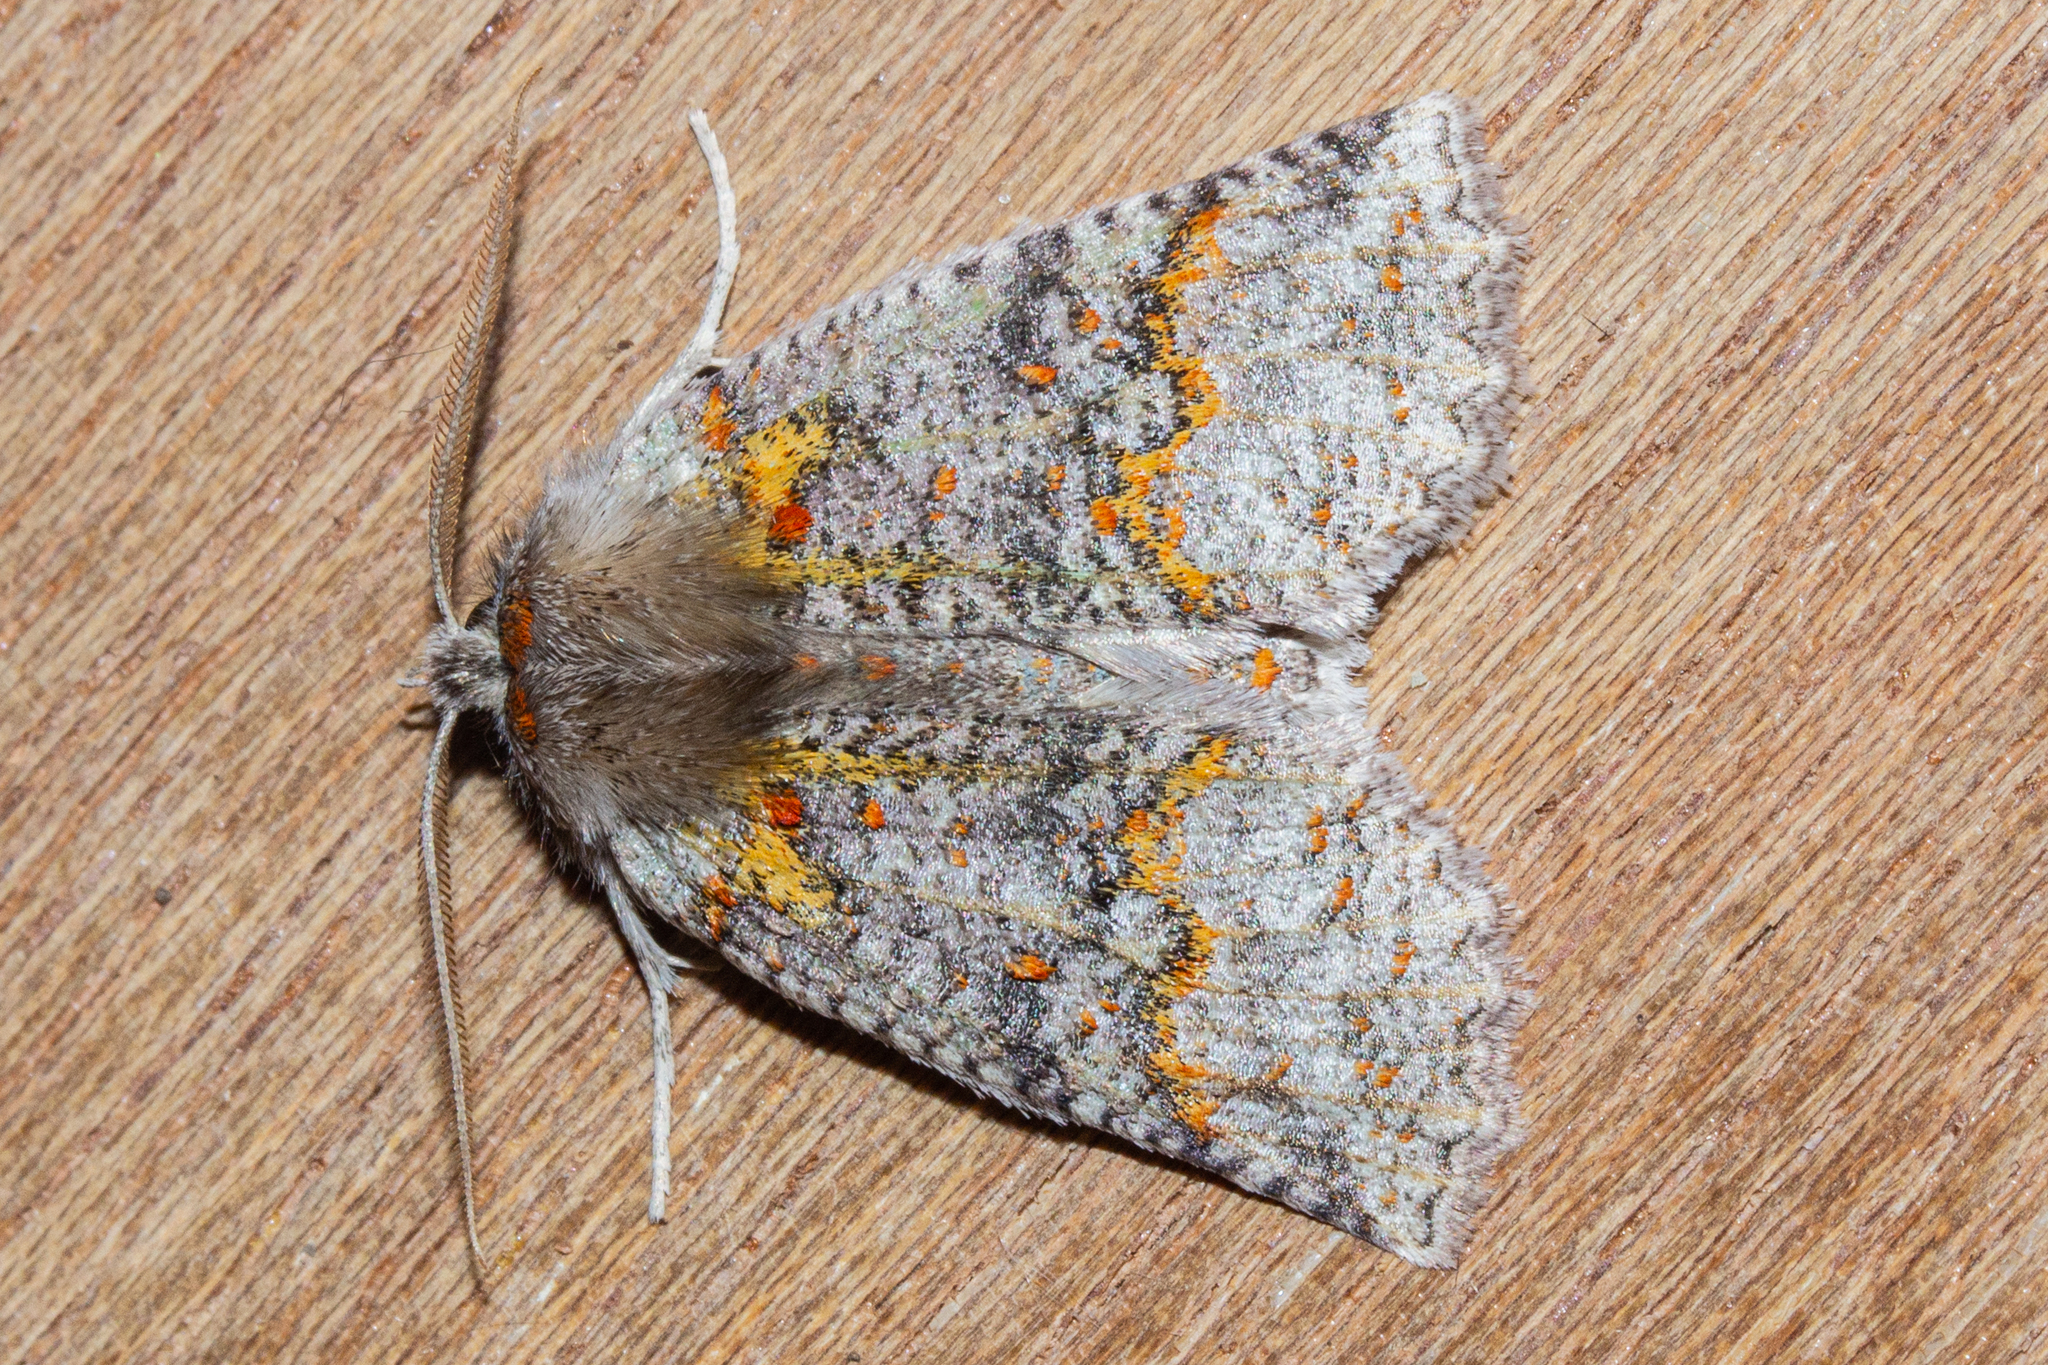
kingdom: Animalia
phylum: Arthropoda
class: Insecta
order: Lepidoptera
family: Geometridae
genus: Declana
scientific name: Declana floccosa
